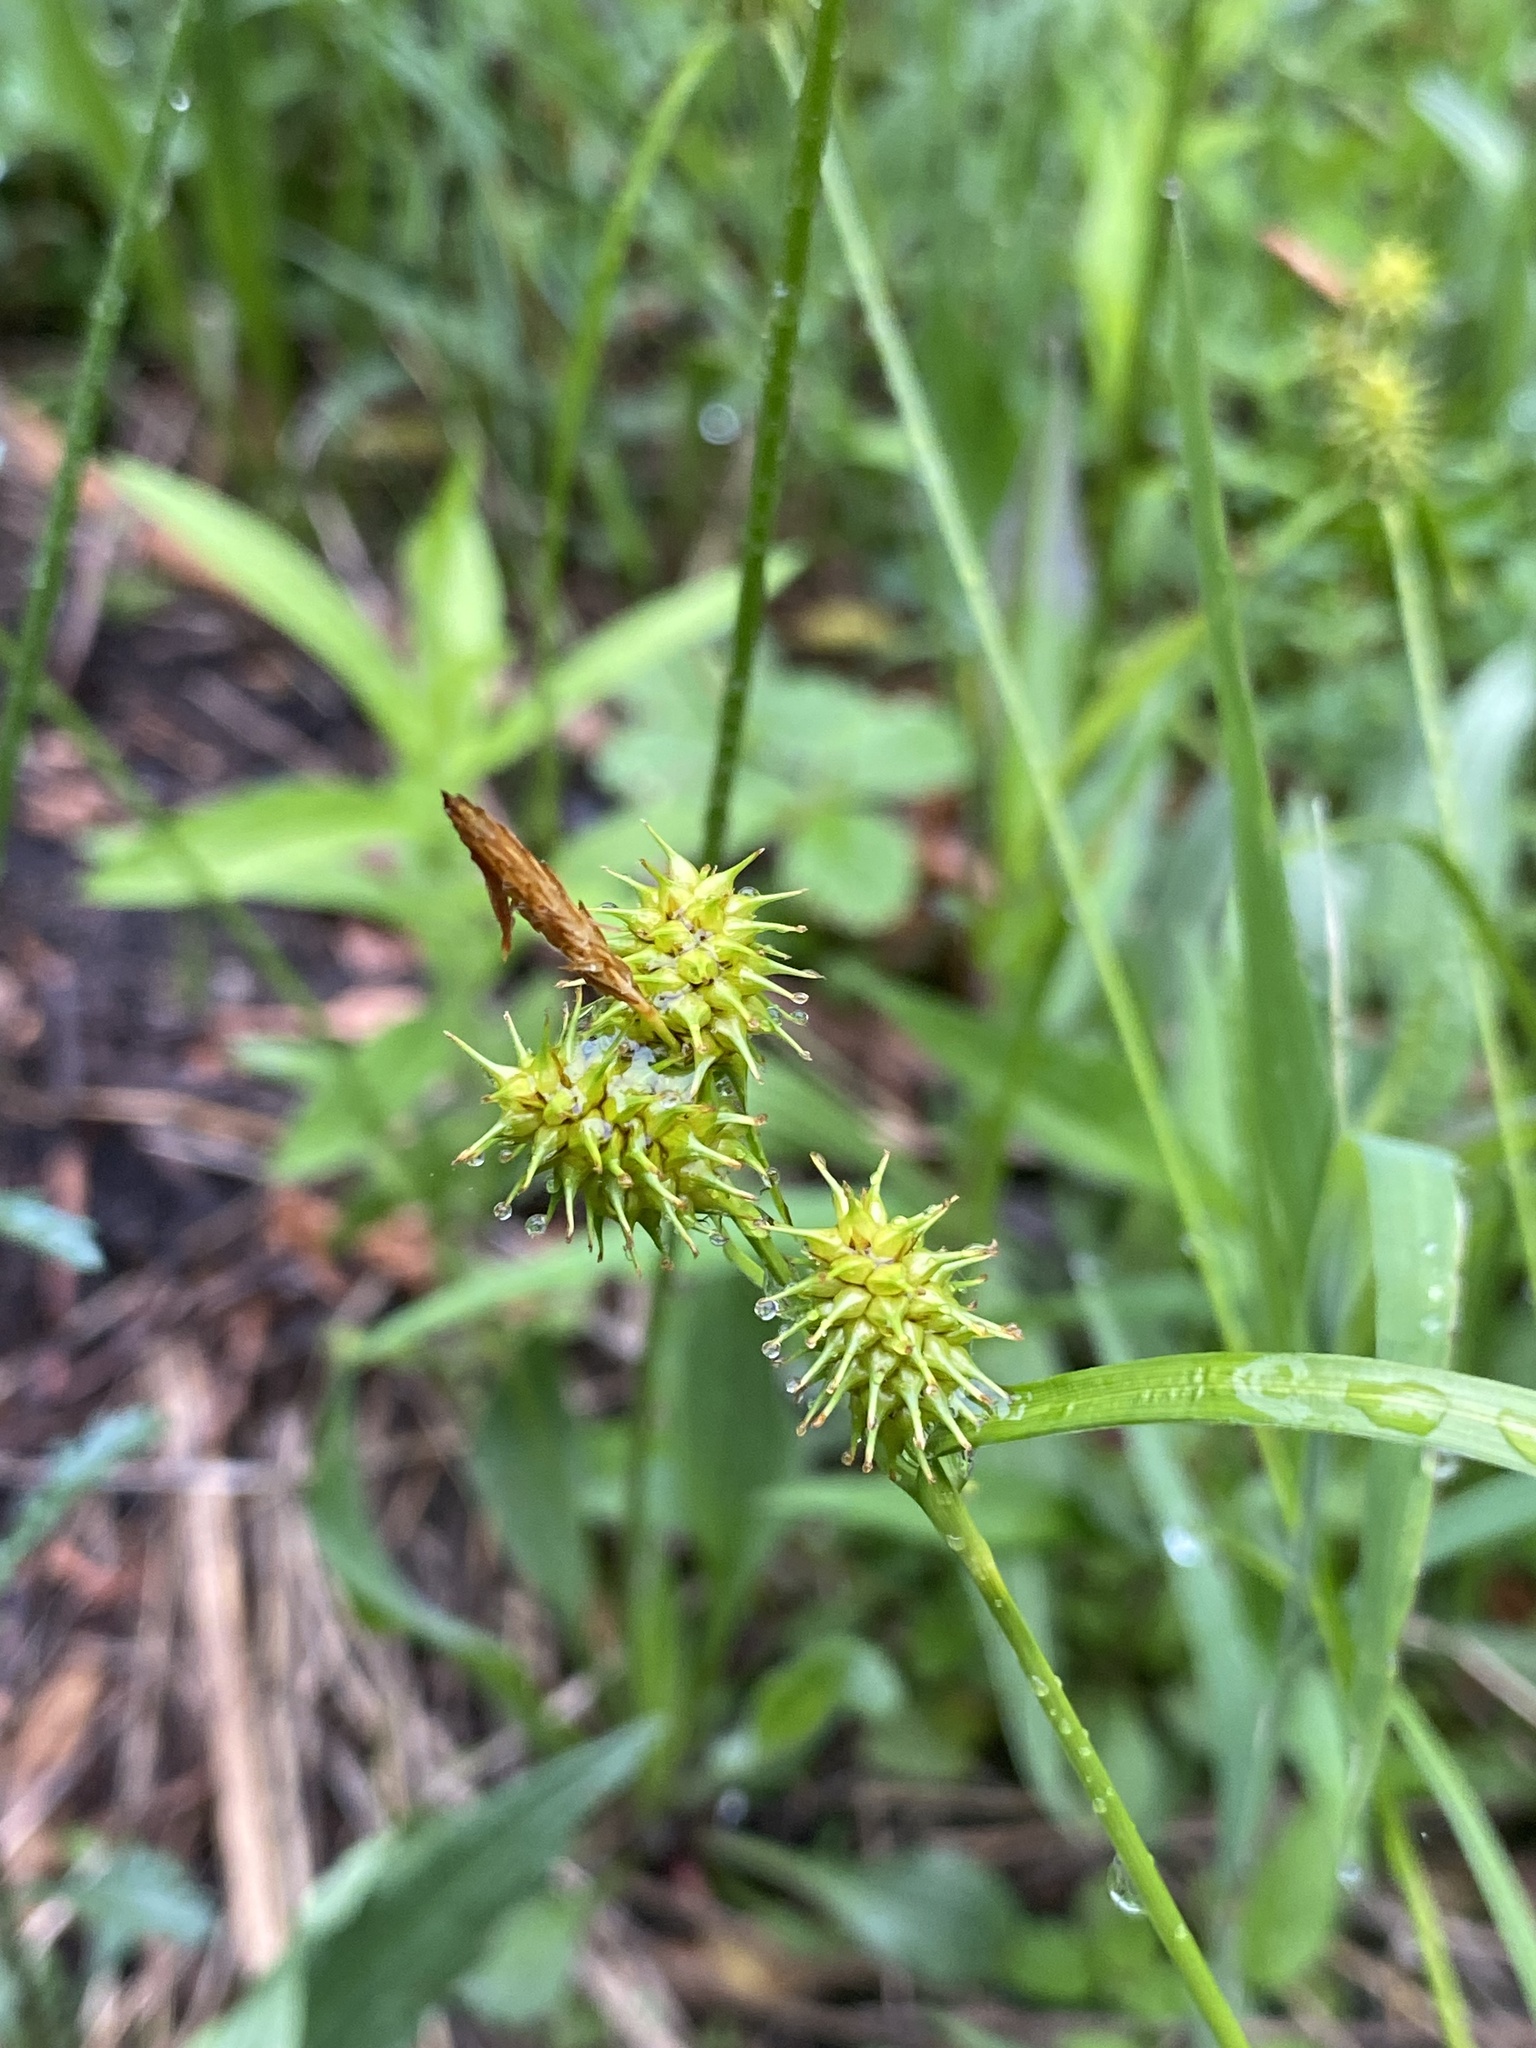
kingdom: Plantae
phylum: Tracheophyta
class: Liliopsida
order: Poales
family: Cyperaceae
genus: Carex
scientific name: Carex flava
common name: Large yellow-sedge
